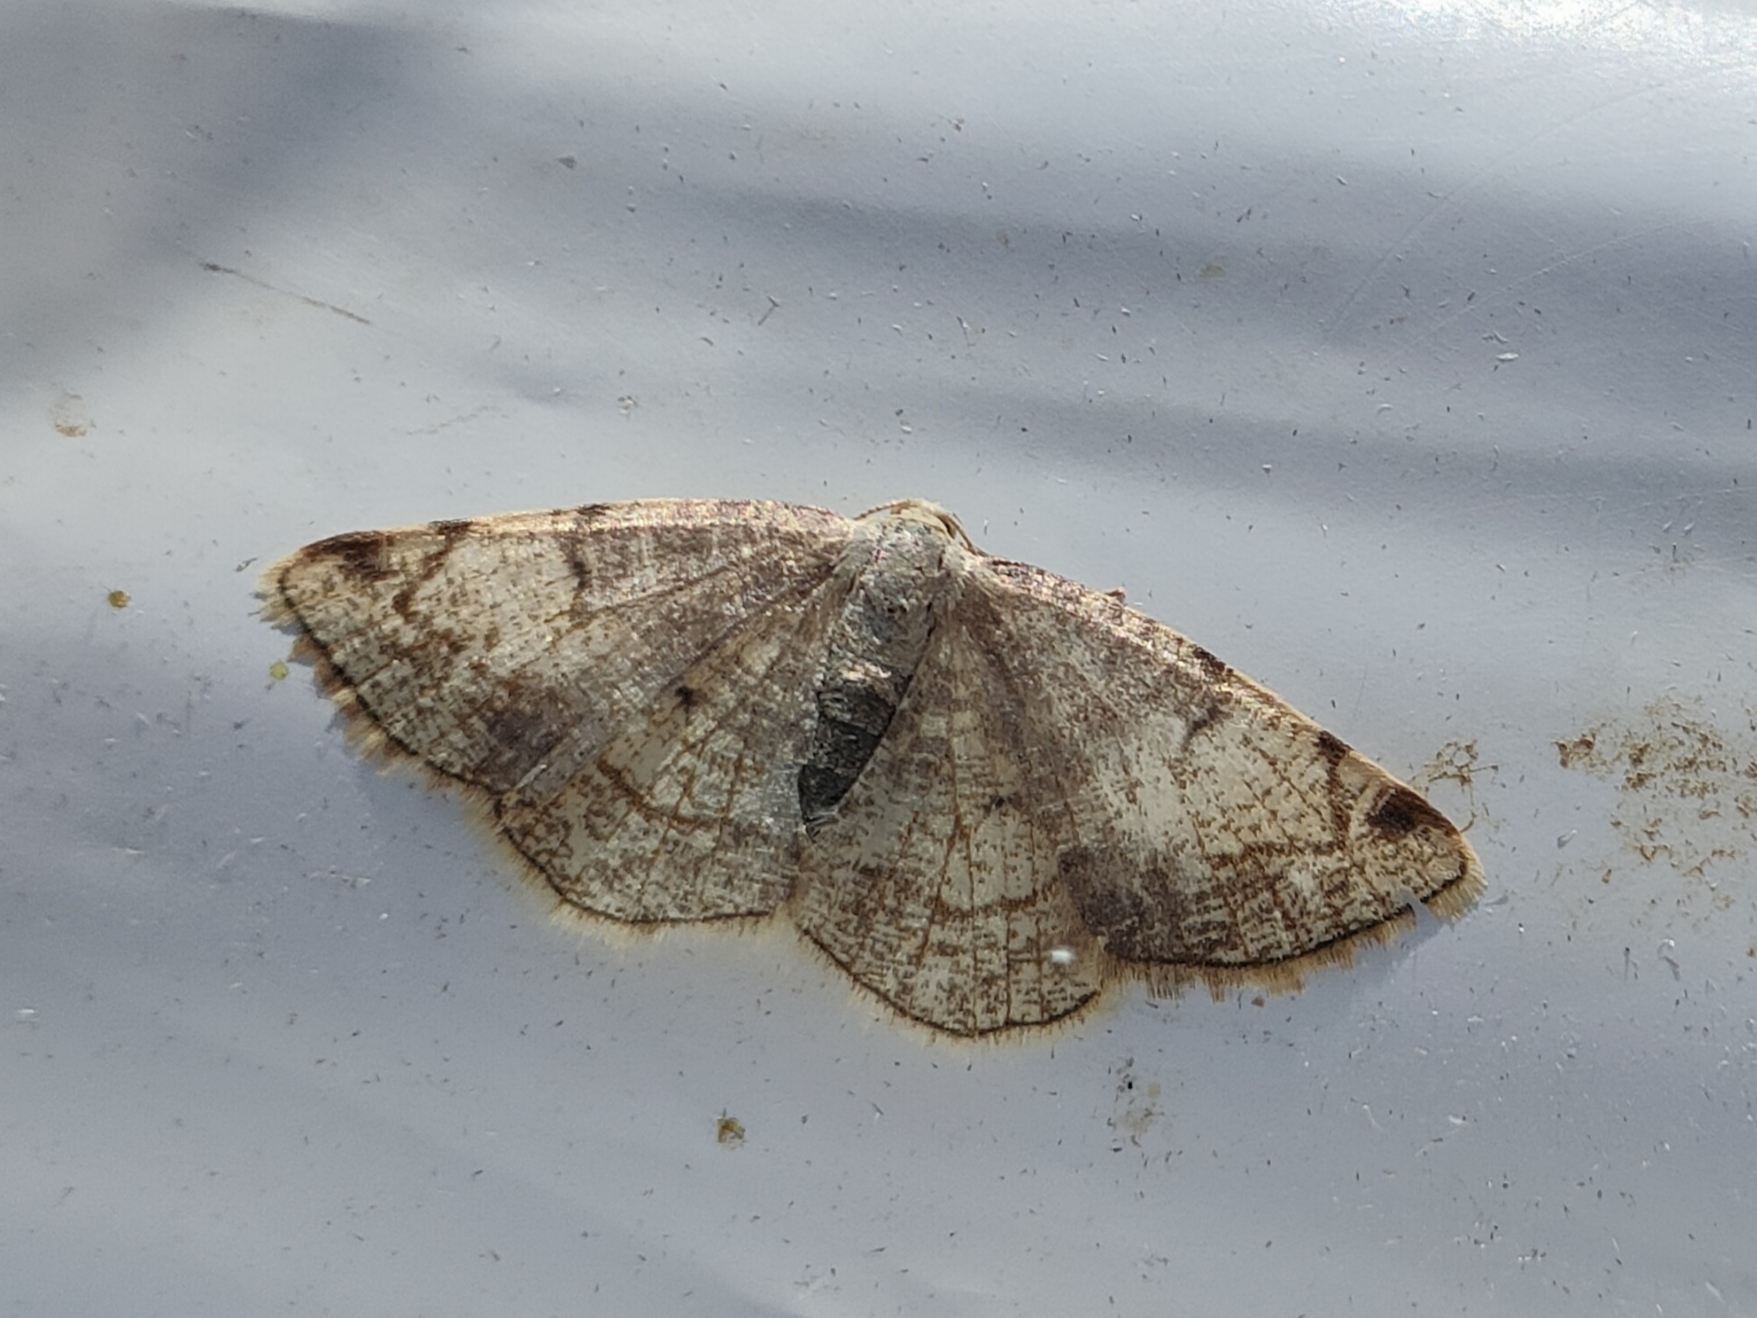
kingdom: Animalia
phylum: Arthropoda
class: Insecta
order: Lepidoptera
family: Geometridae
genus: Stegania
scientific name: Stegania trimaculata
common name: Dorset cream wave
